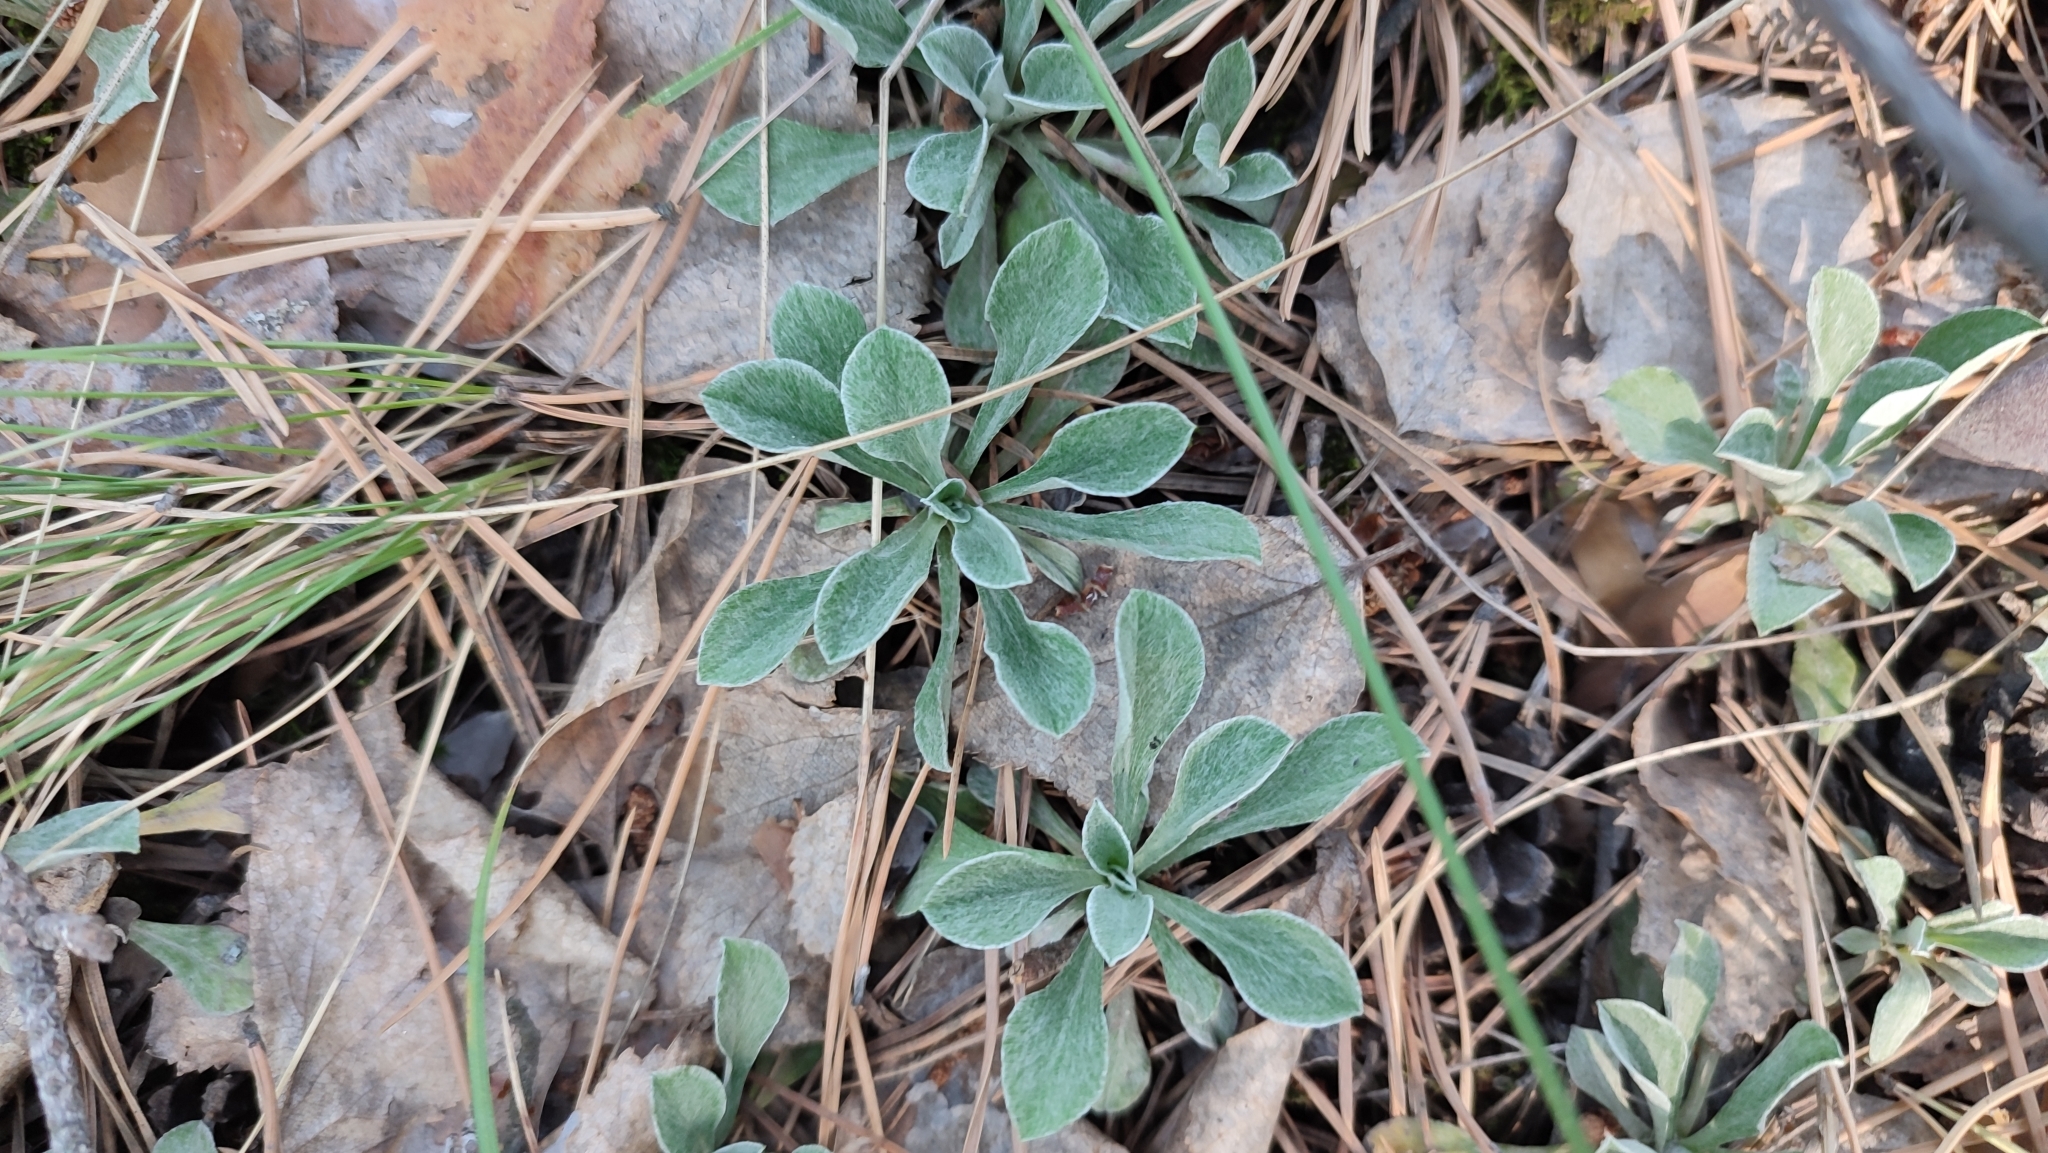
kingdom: Plantae
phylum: Tracheophyta
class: Magnoliopsida
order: Asterales
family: Asteraceae
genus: Antennaria
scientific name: Antennaria dioica
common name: Mountain everlasting
